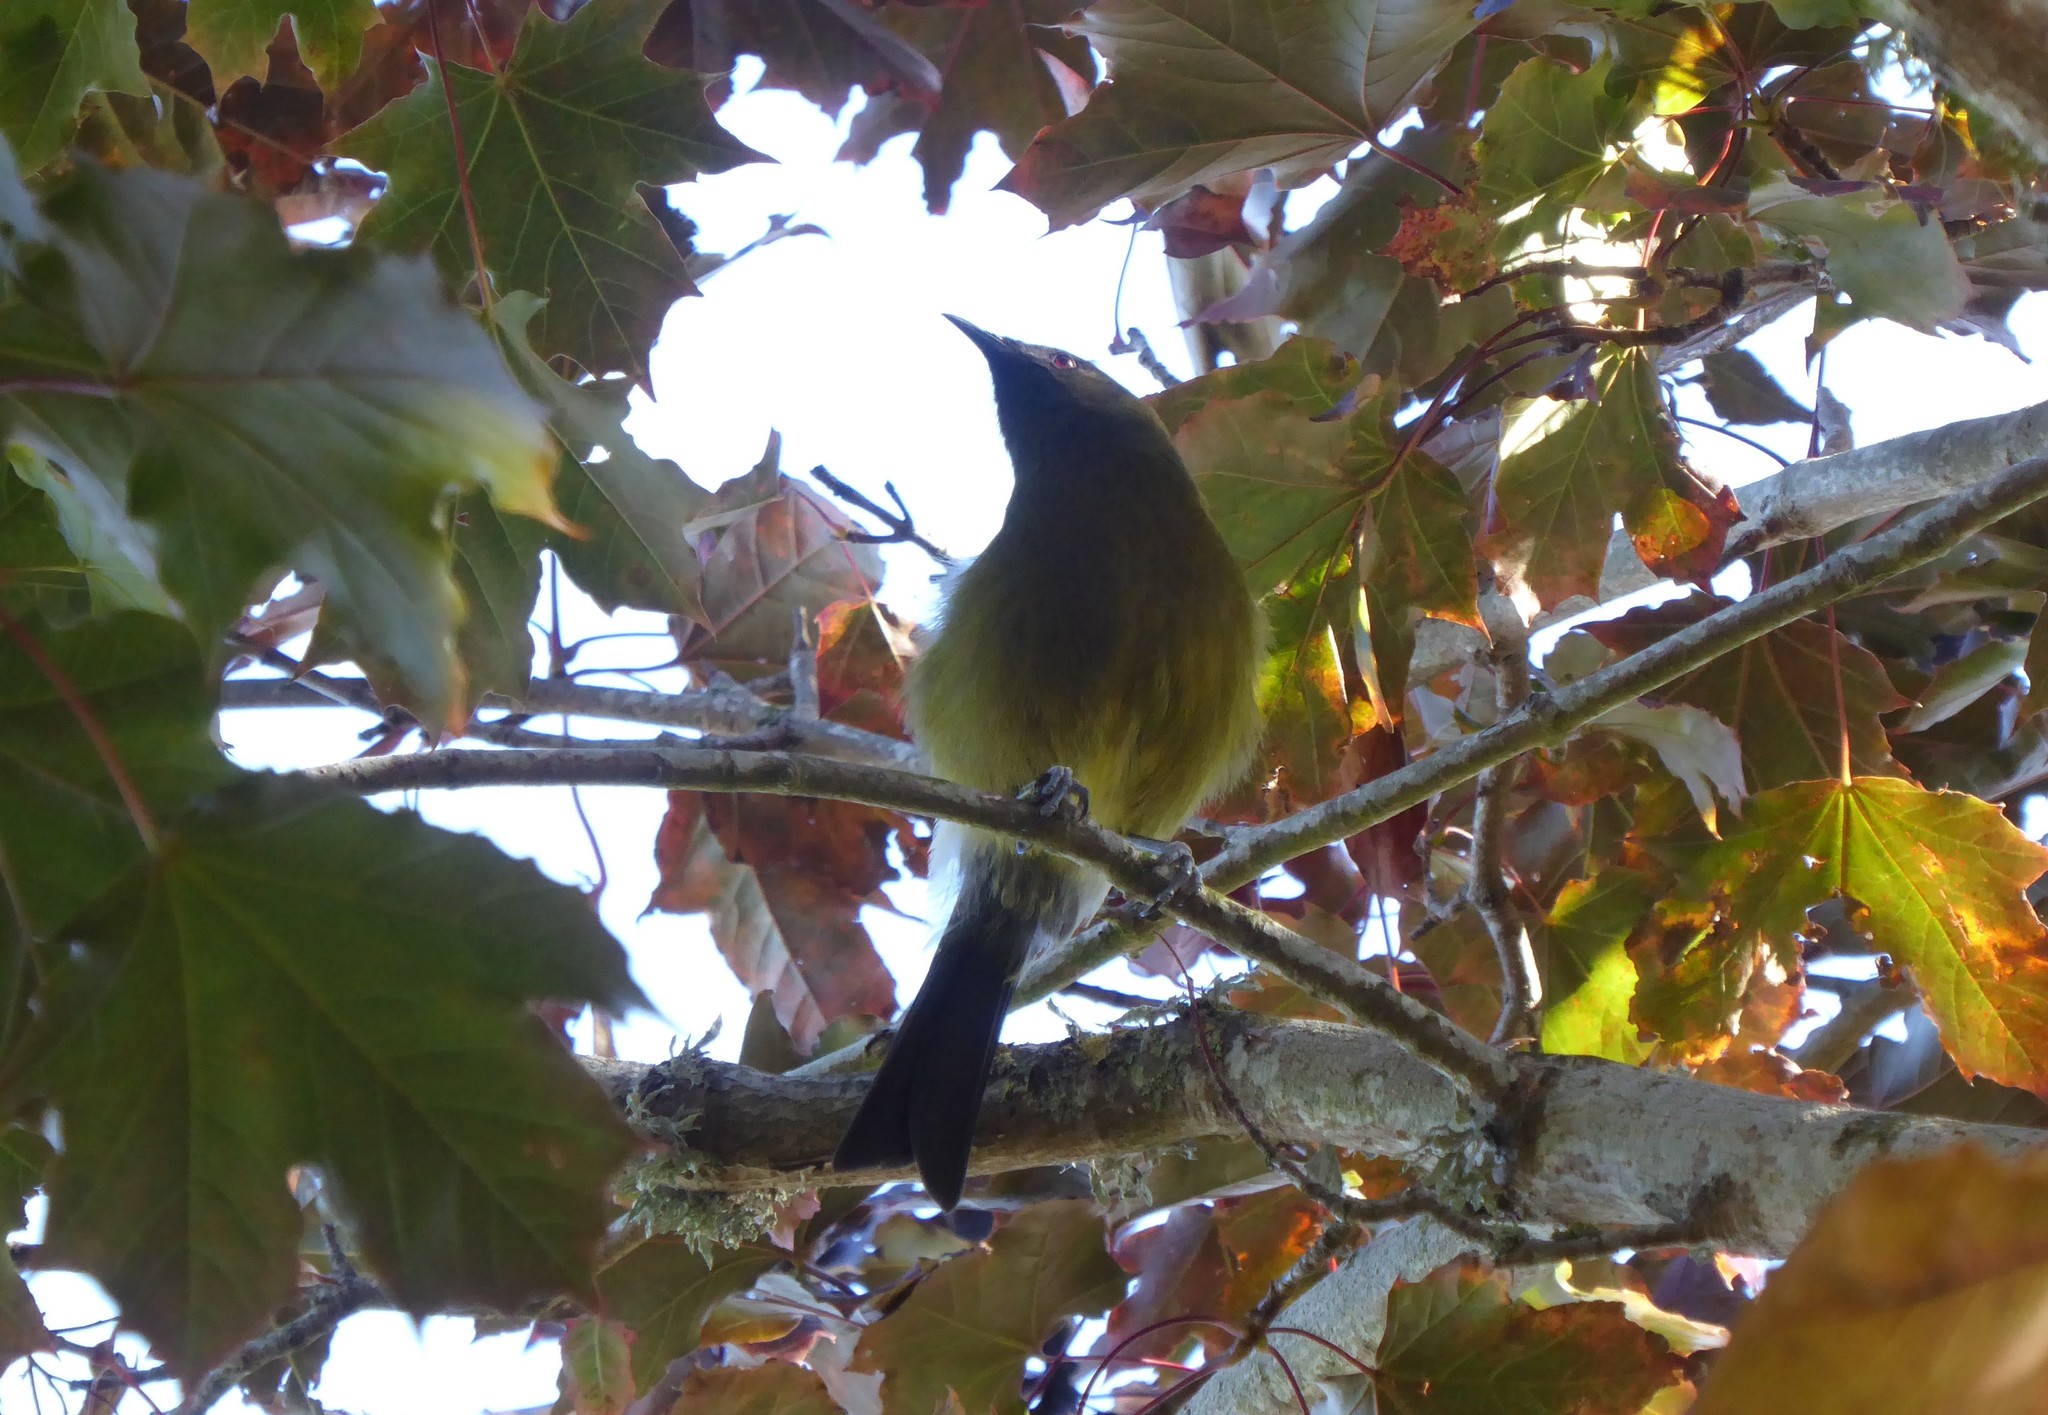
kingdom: Animalia
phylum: Chordata
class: Aves
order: Passeriformes
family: Meliphagidae
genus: Anthornis
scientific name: Anthornis melanura
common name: New zealand bellbird
